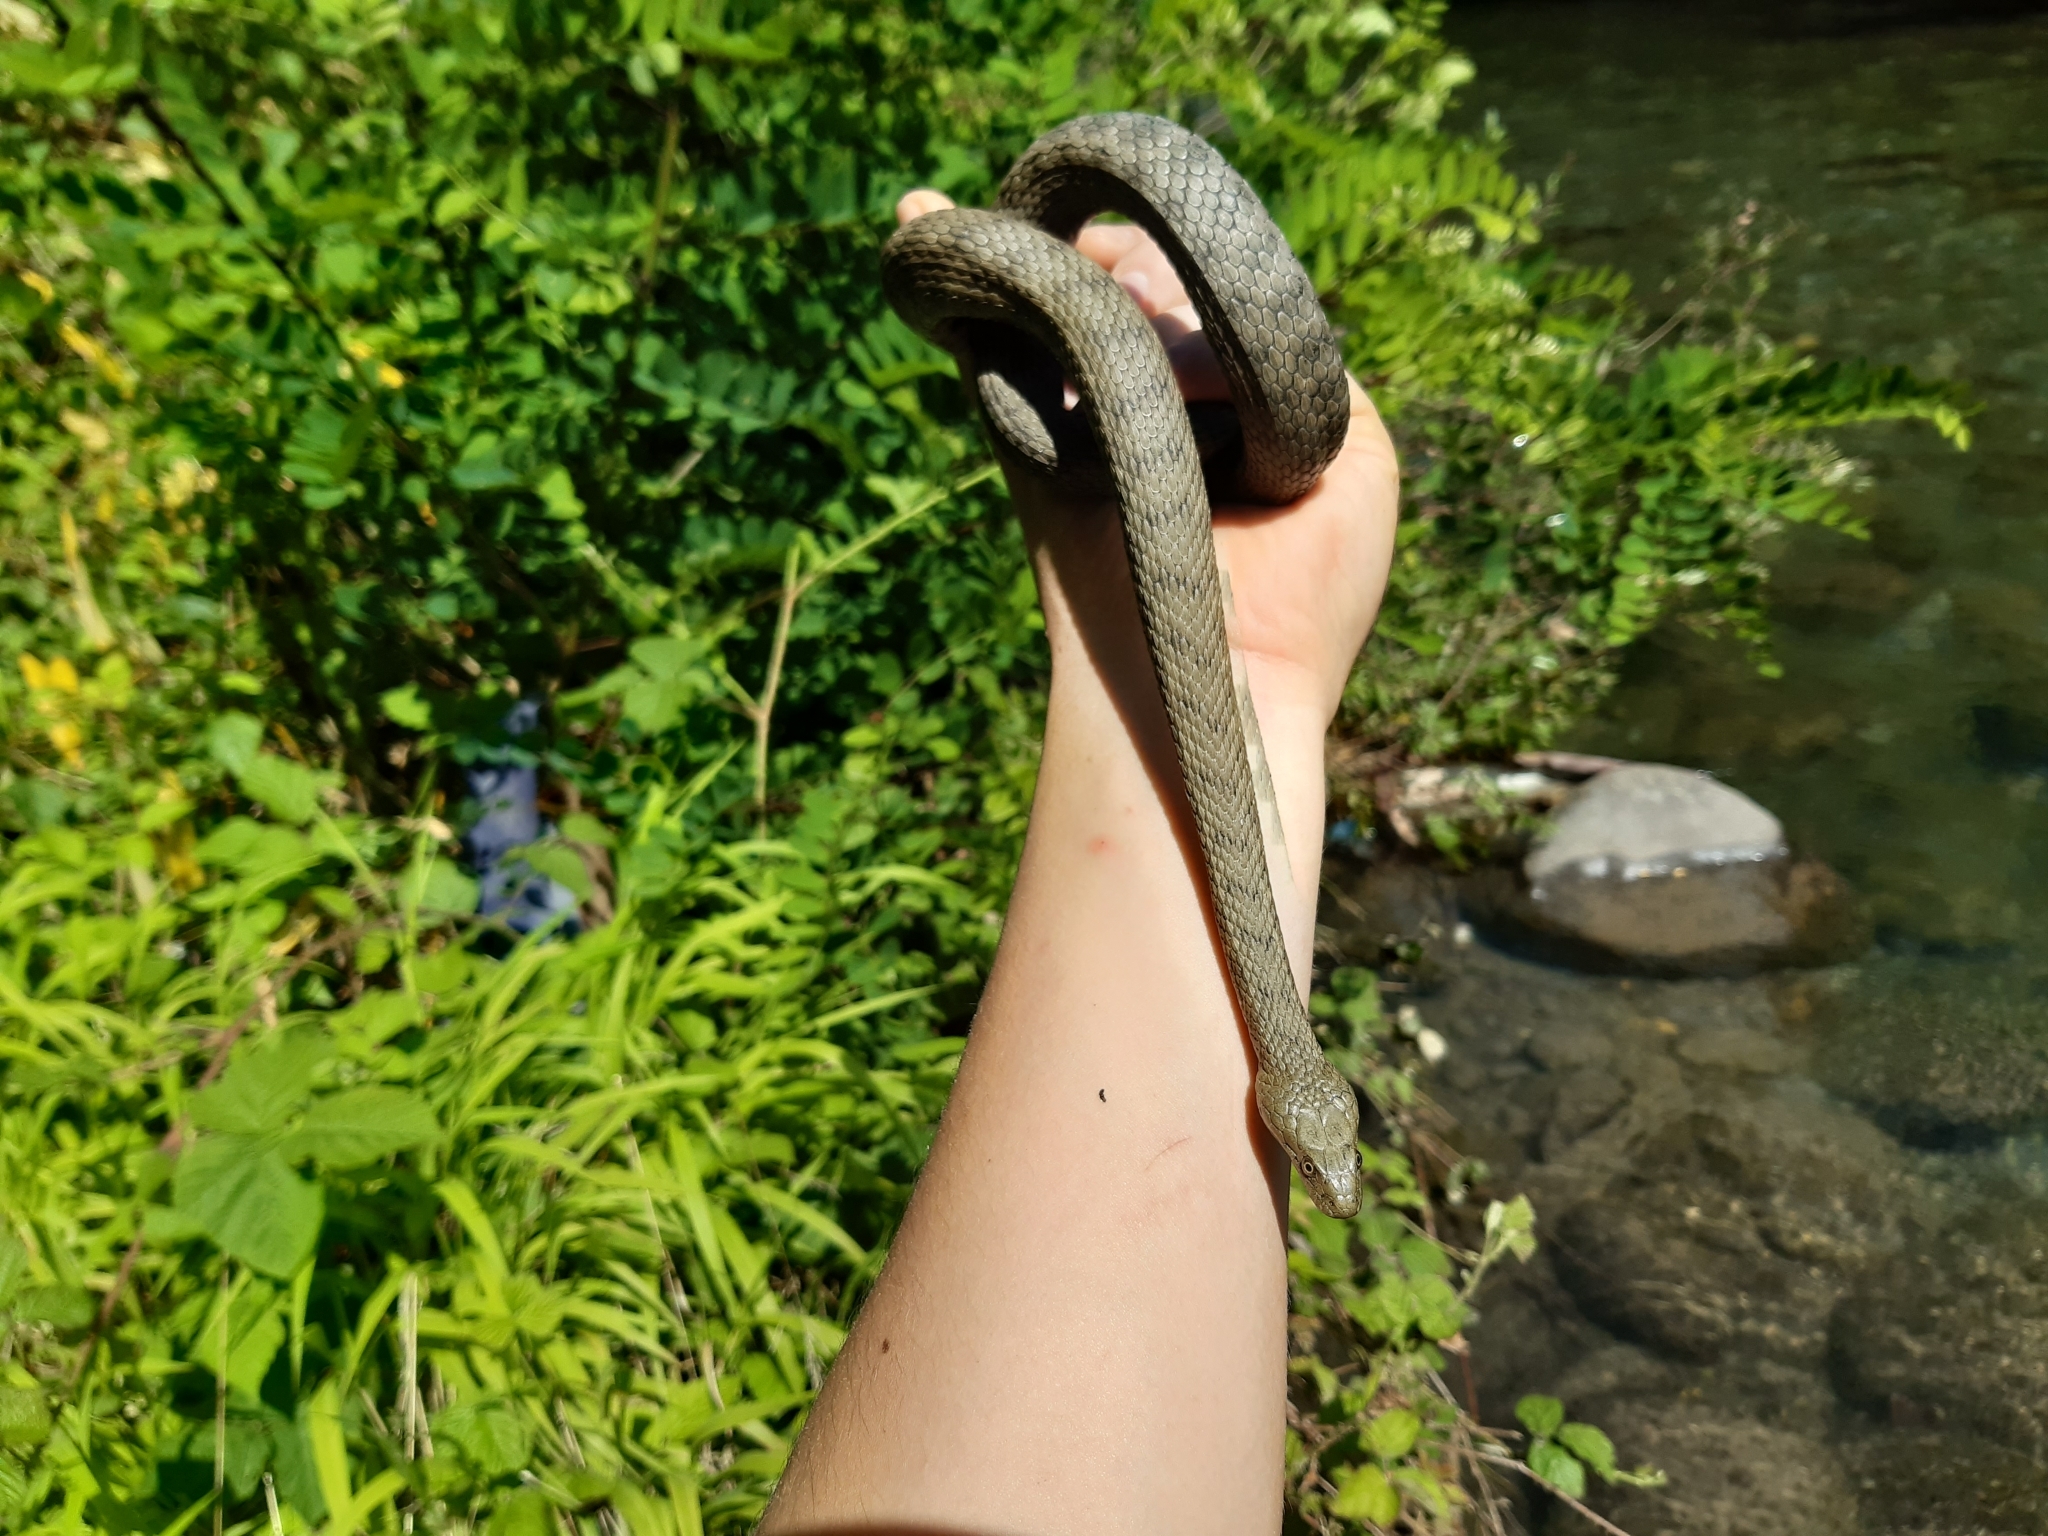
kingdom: Animalia
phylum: Chordata
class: Squamata
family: Colubridae
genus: Natrix
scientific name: Natrix tessellata
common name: Dice snake
